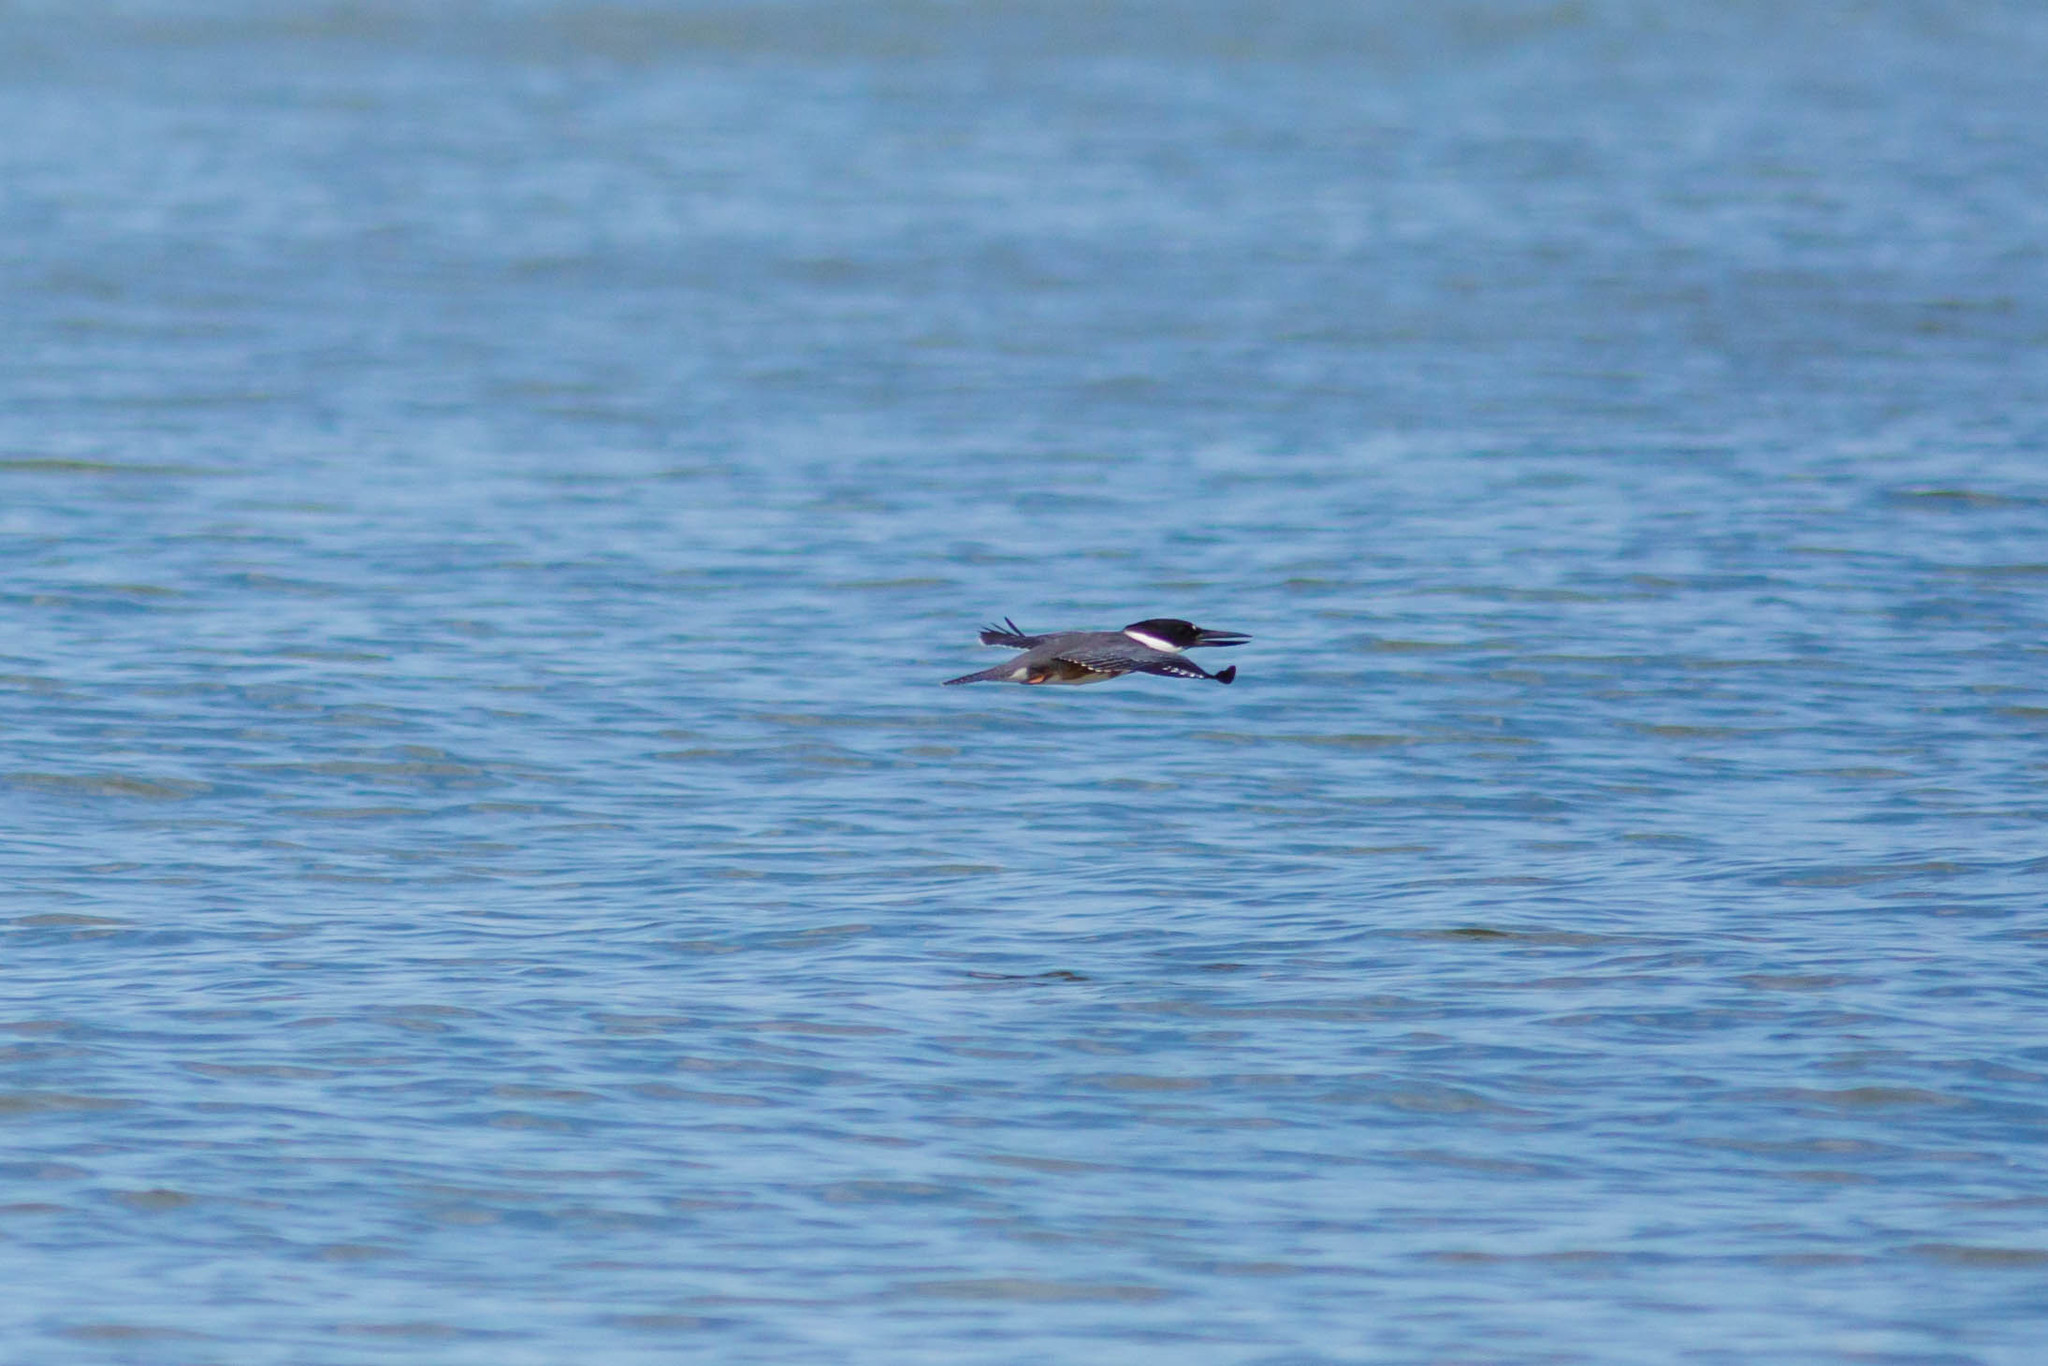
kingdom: Animalia
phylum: Chordata
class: Aves
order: Coraciiformes
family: Alcedinidae
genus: Megaceryle
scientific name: Megaceryle alcyon
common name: Belted kingfisher
